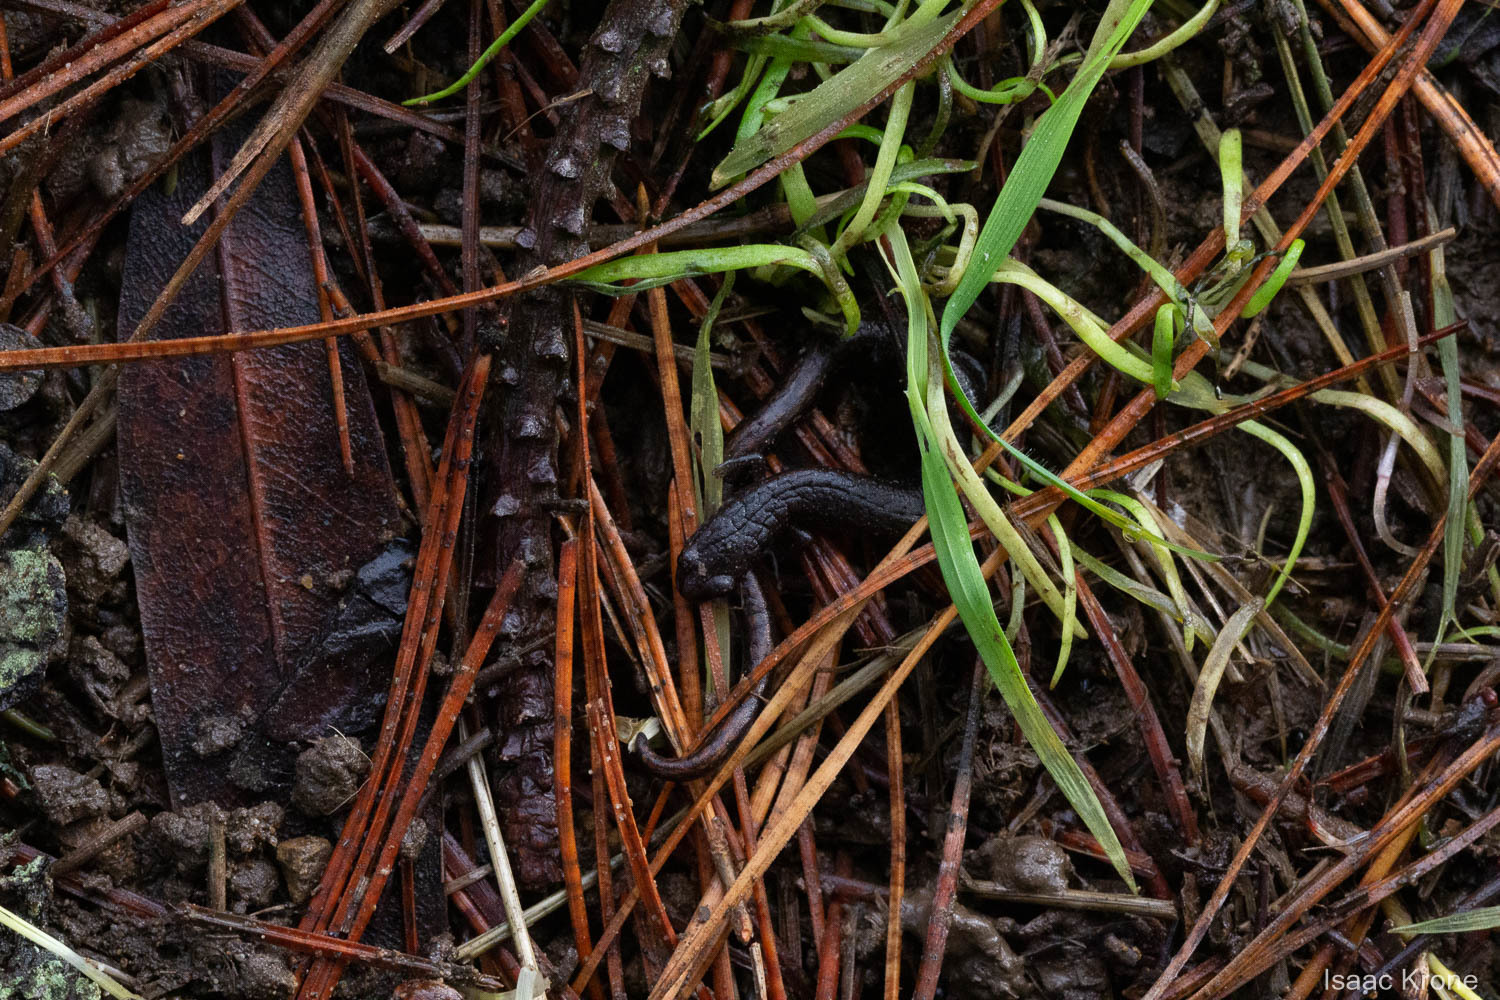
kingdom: Animalia
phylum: Chordata
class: Amphibia
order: Caudata
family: Plethodontidae
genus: Batrachoseps
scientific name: Batrachoseps attenuatus
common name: California slender salamander
